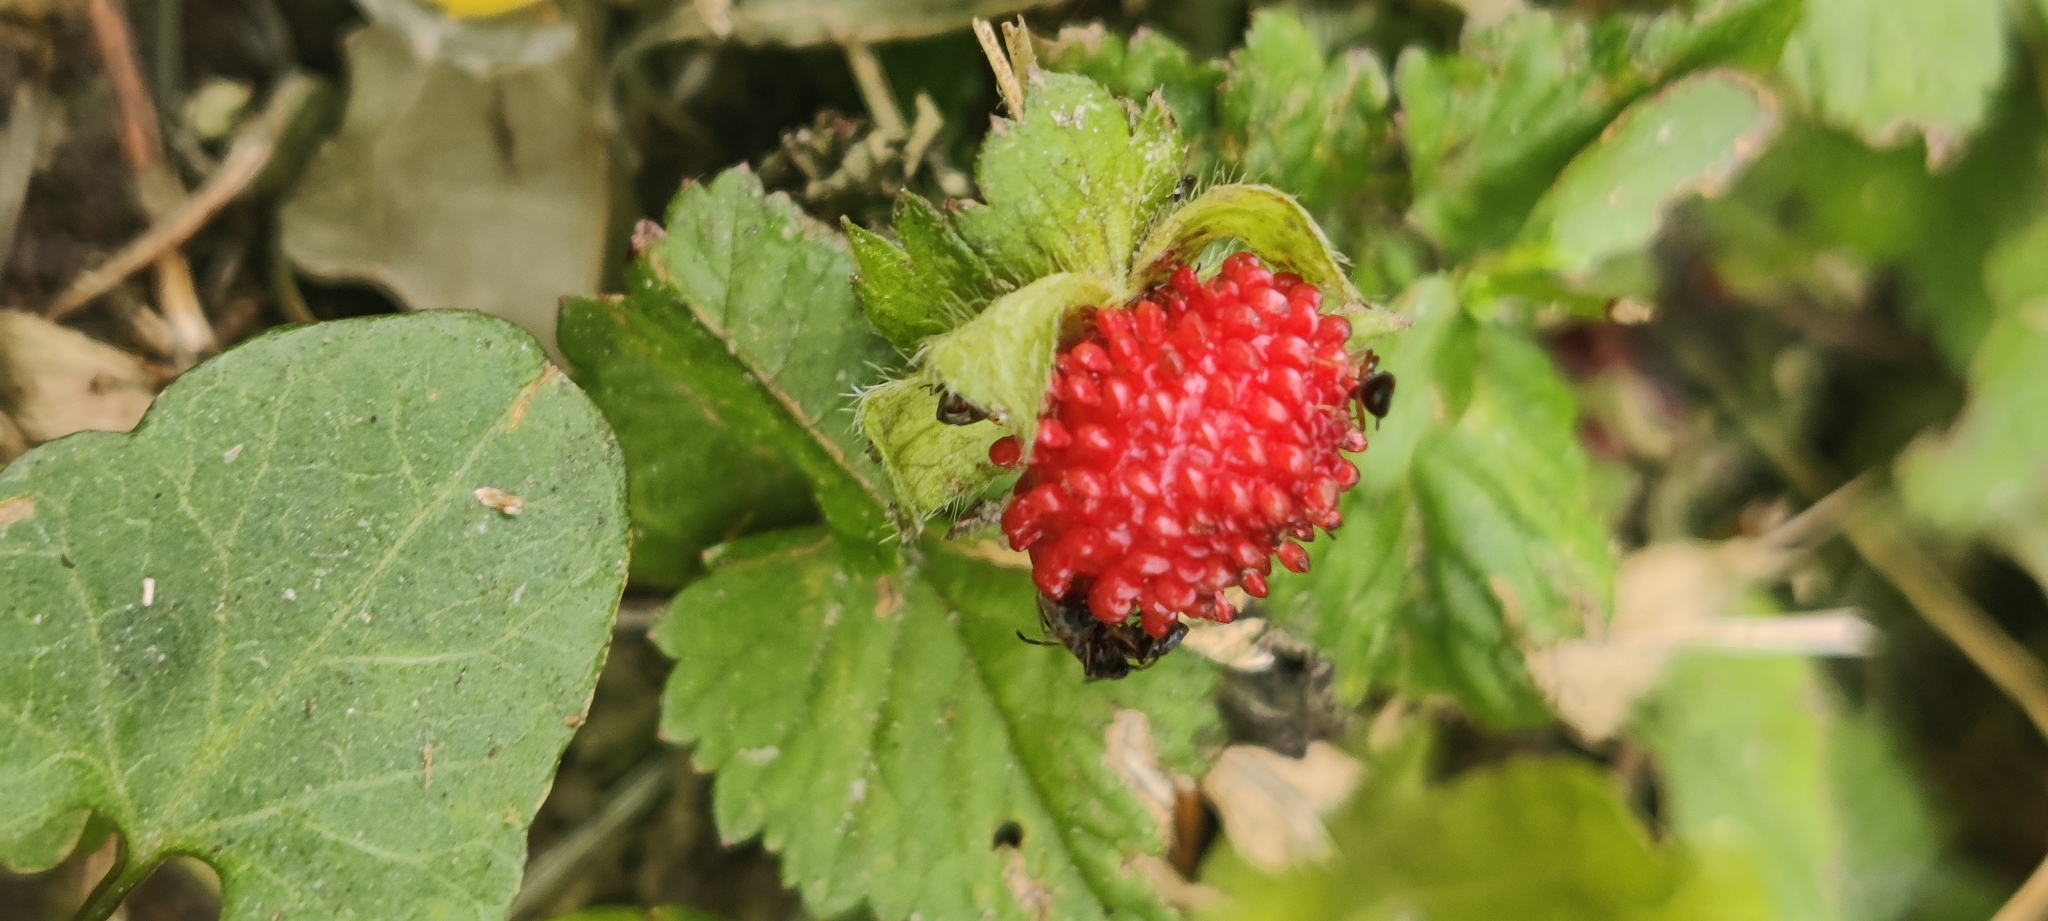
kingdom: Plantae
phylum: Tracheophyta
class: Magnoliopsida
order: Rosales
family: Rosaceae
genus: Potentilla
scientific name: Potentilla indica
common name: Yellow-flowered strawberry
